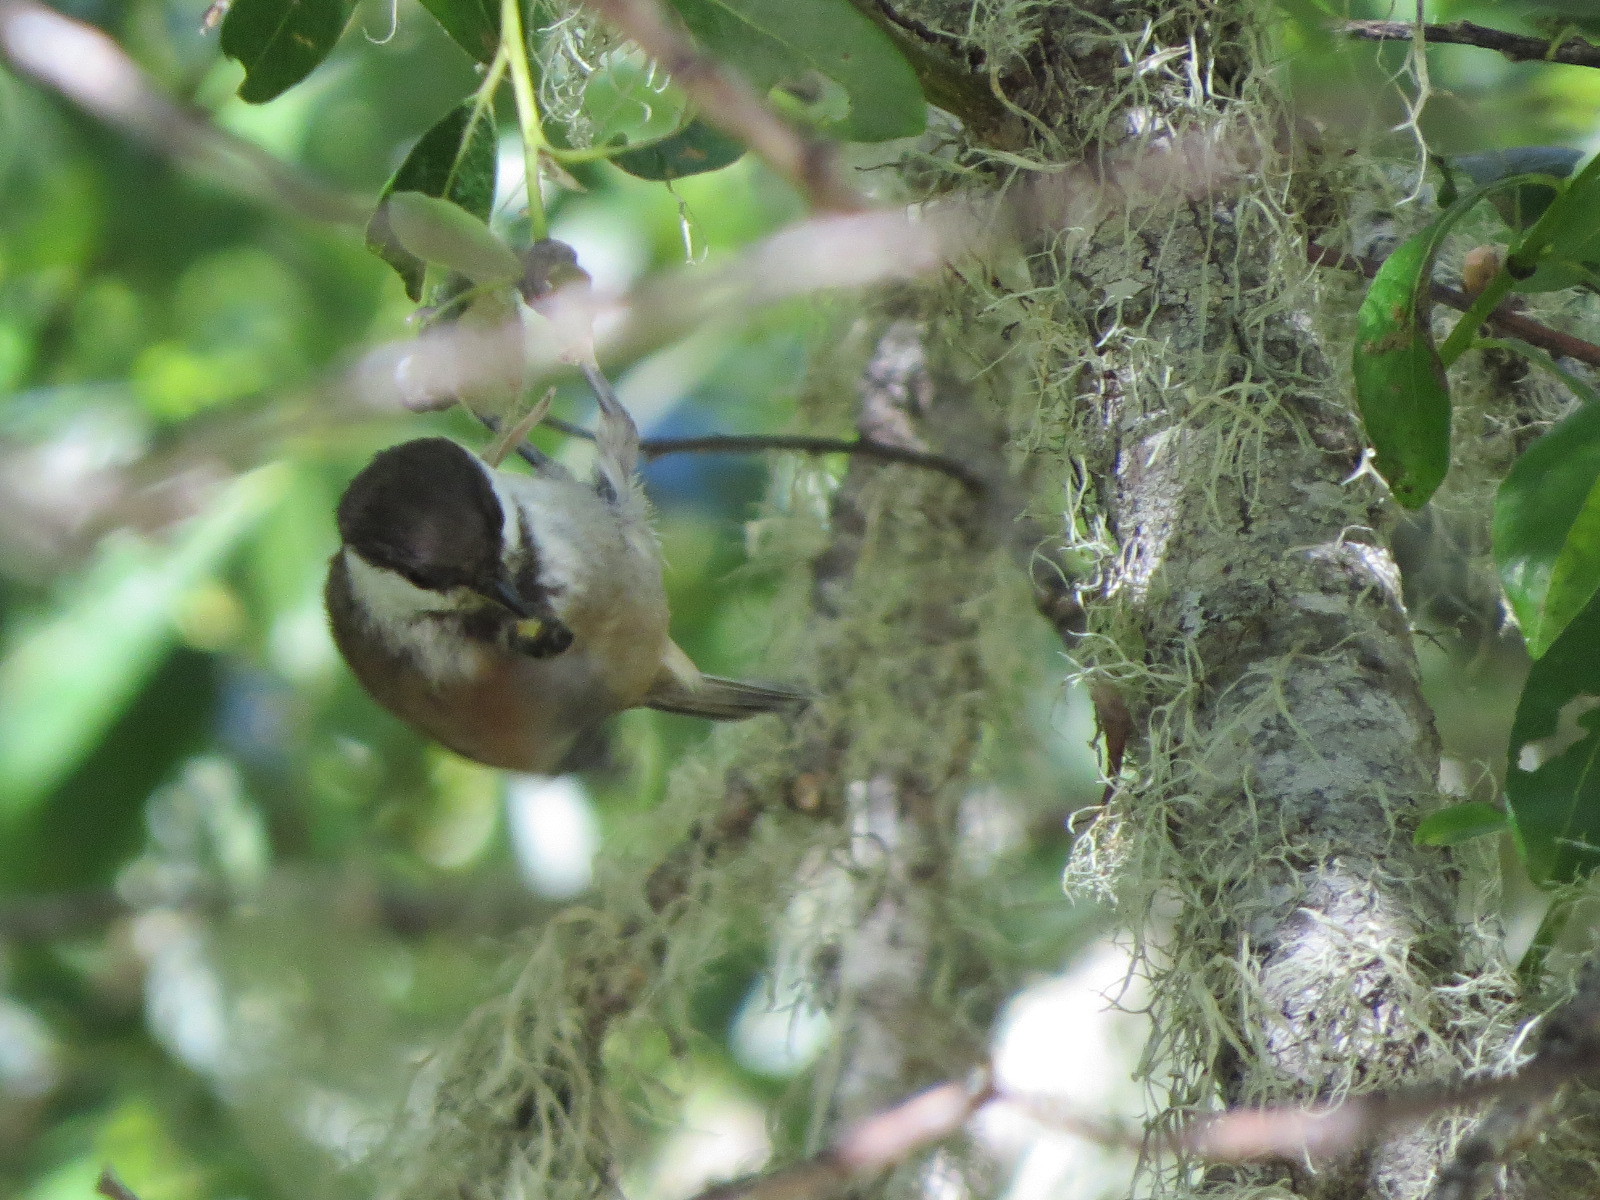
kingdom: Animalia
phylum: Chordata
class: Aves
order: Passeriformes
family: Paridae
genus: Poecile
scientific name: Poecile rufescens
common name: Chestnut-backed chickadee
